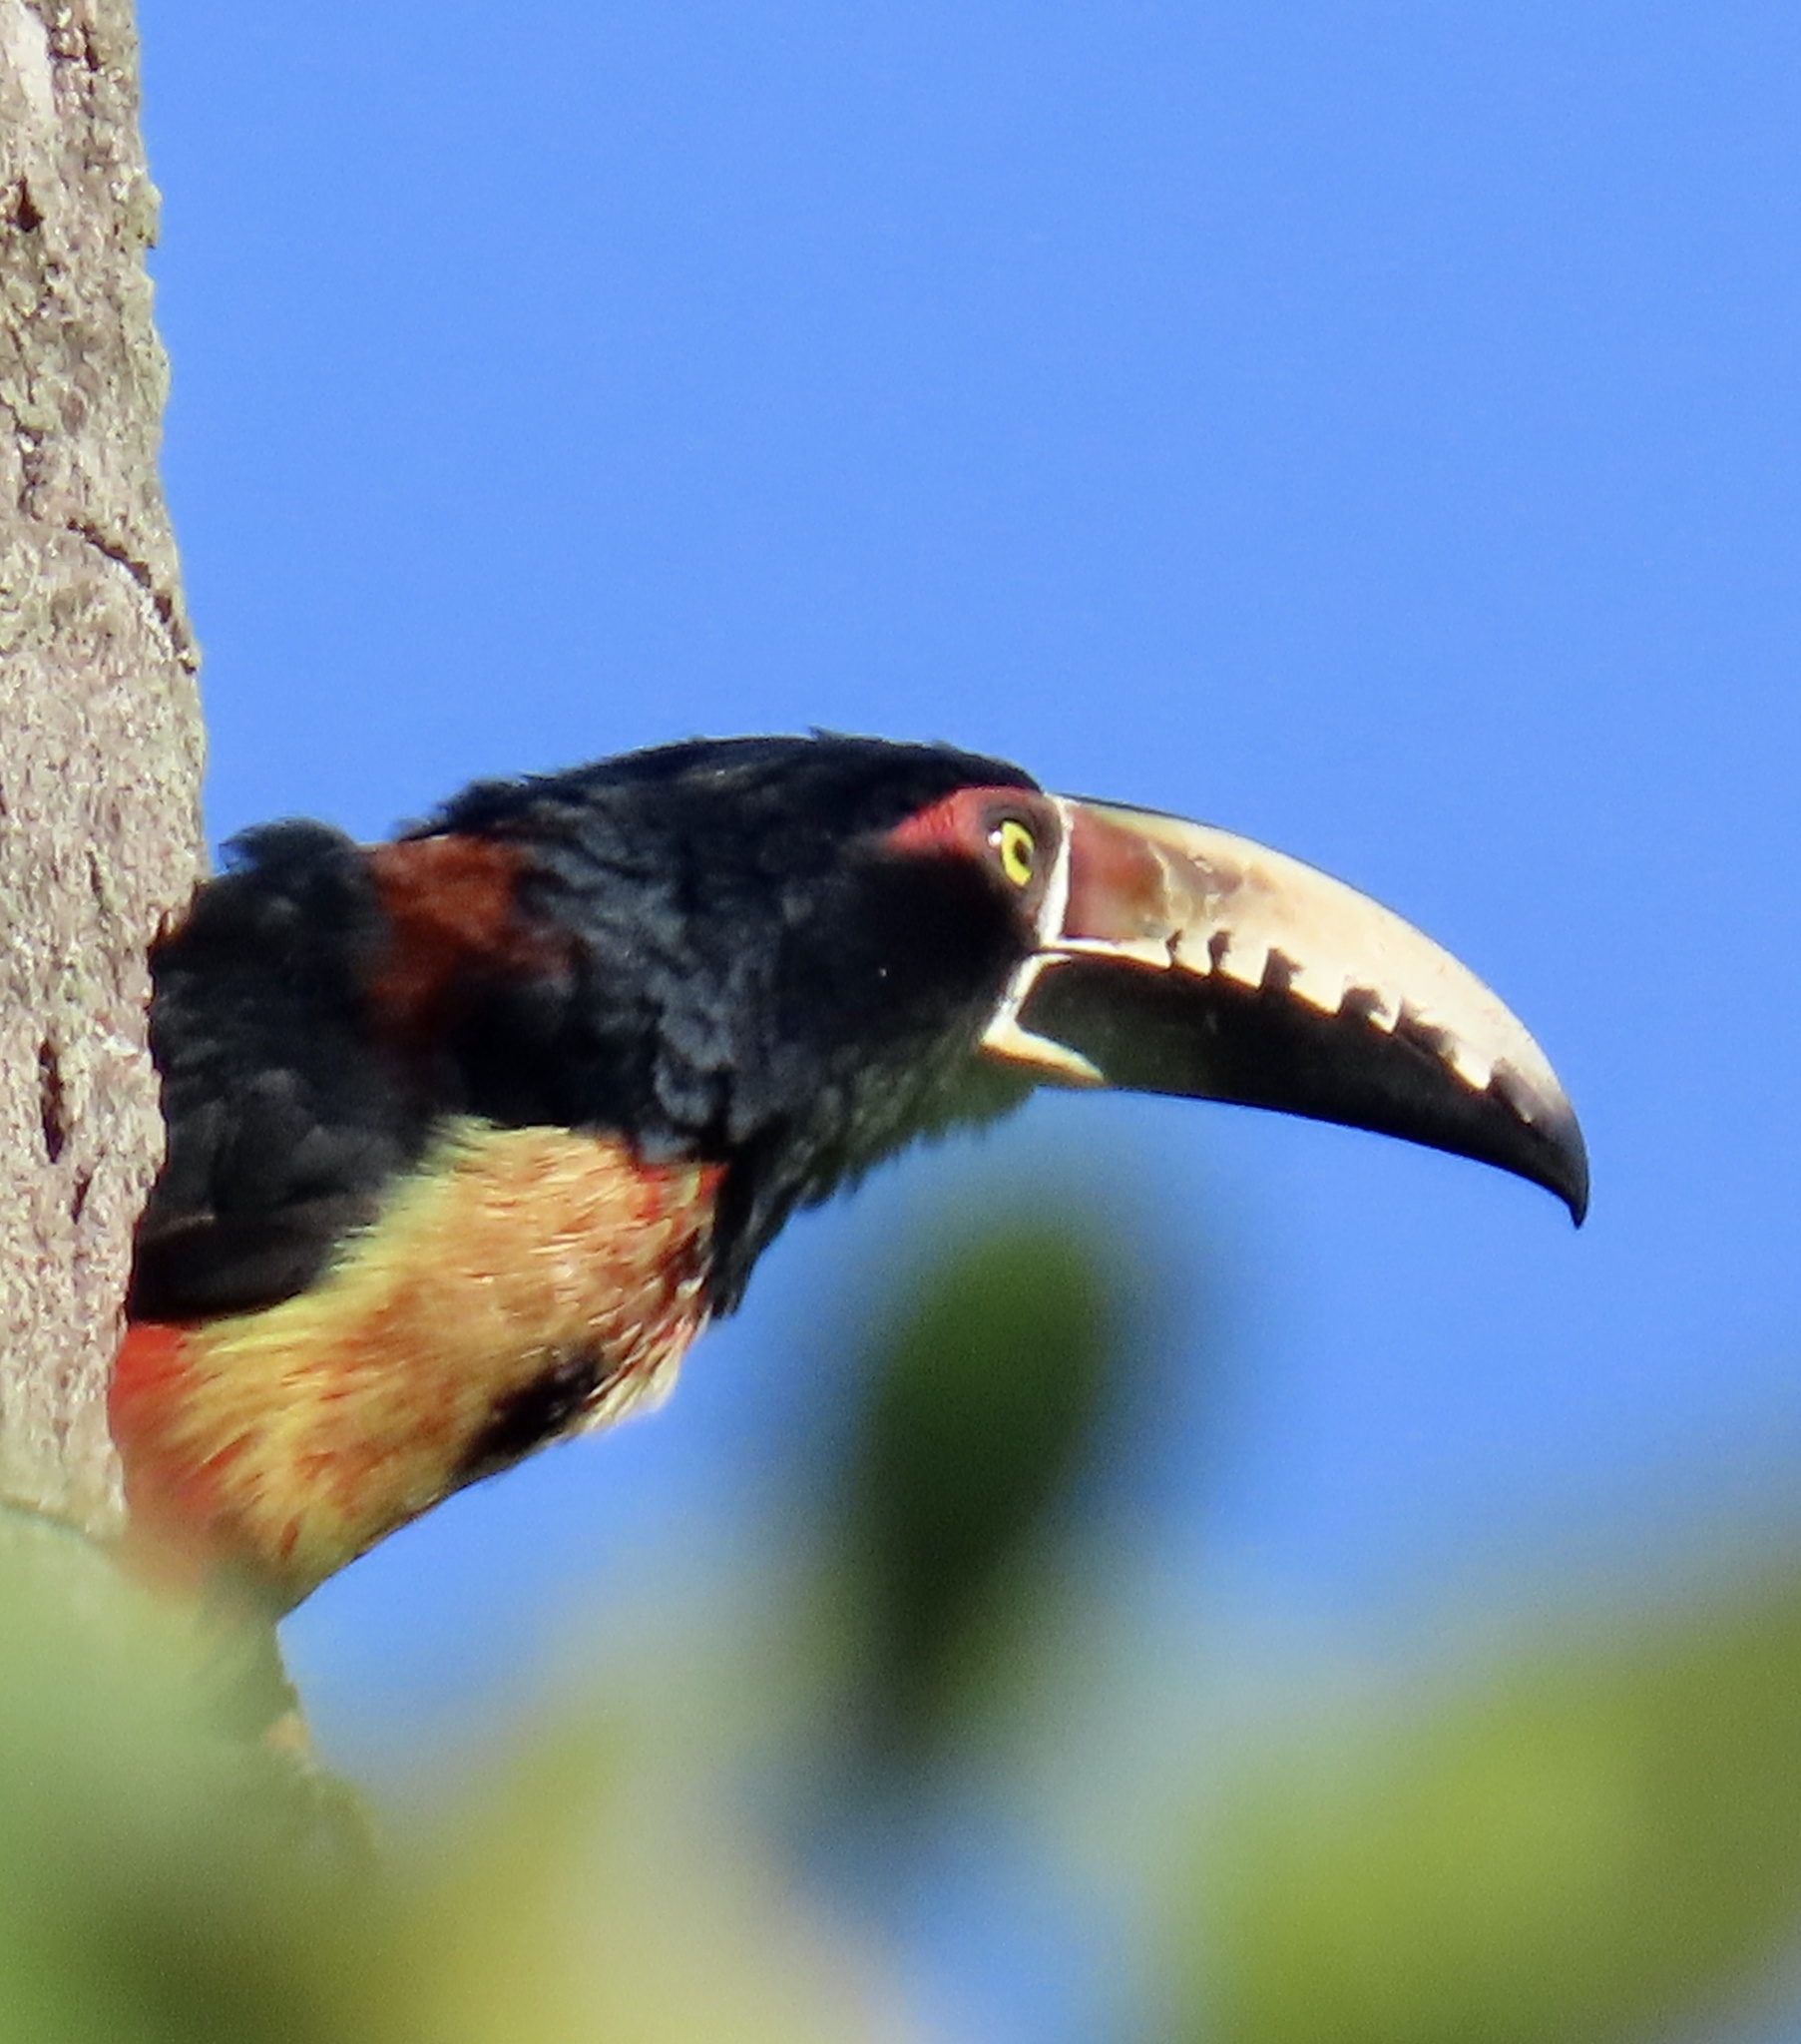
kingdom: Animalia
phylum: Chordata
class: Aves
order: Piciformes
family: Ramphastidae
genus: Pteroglossus
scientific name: Pteroglossus torquatus
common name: Collared aracari
